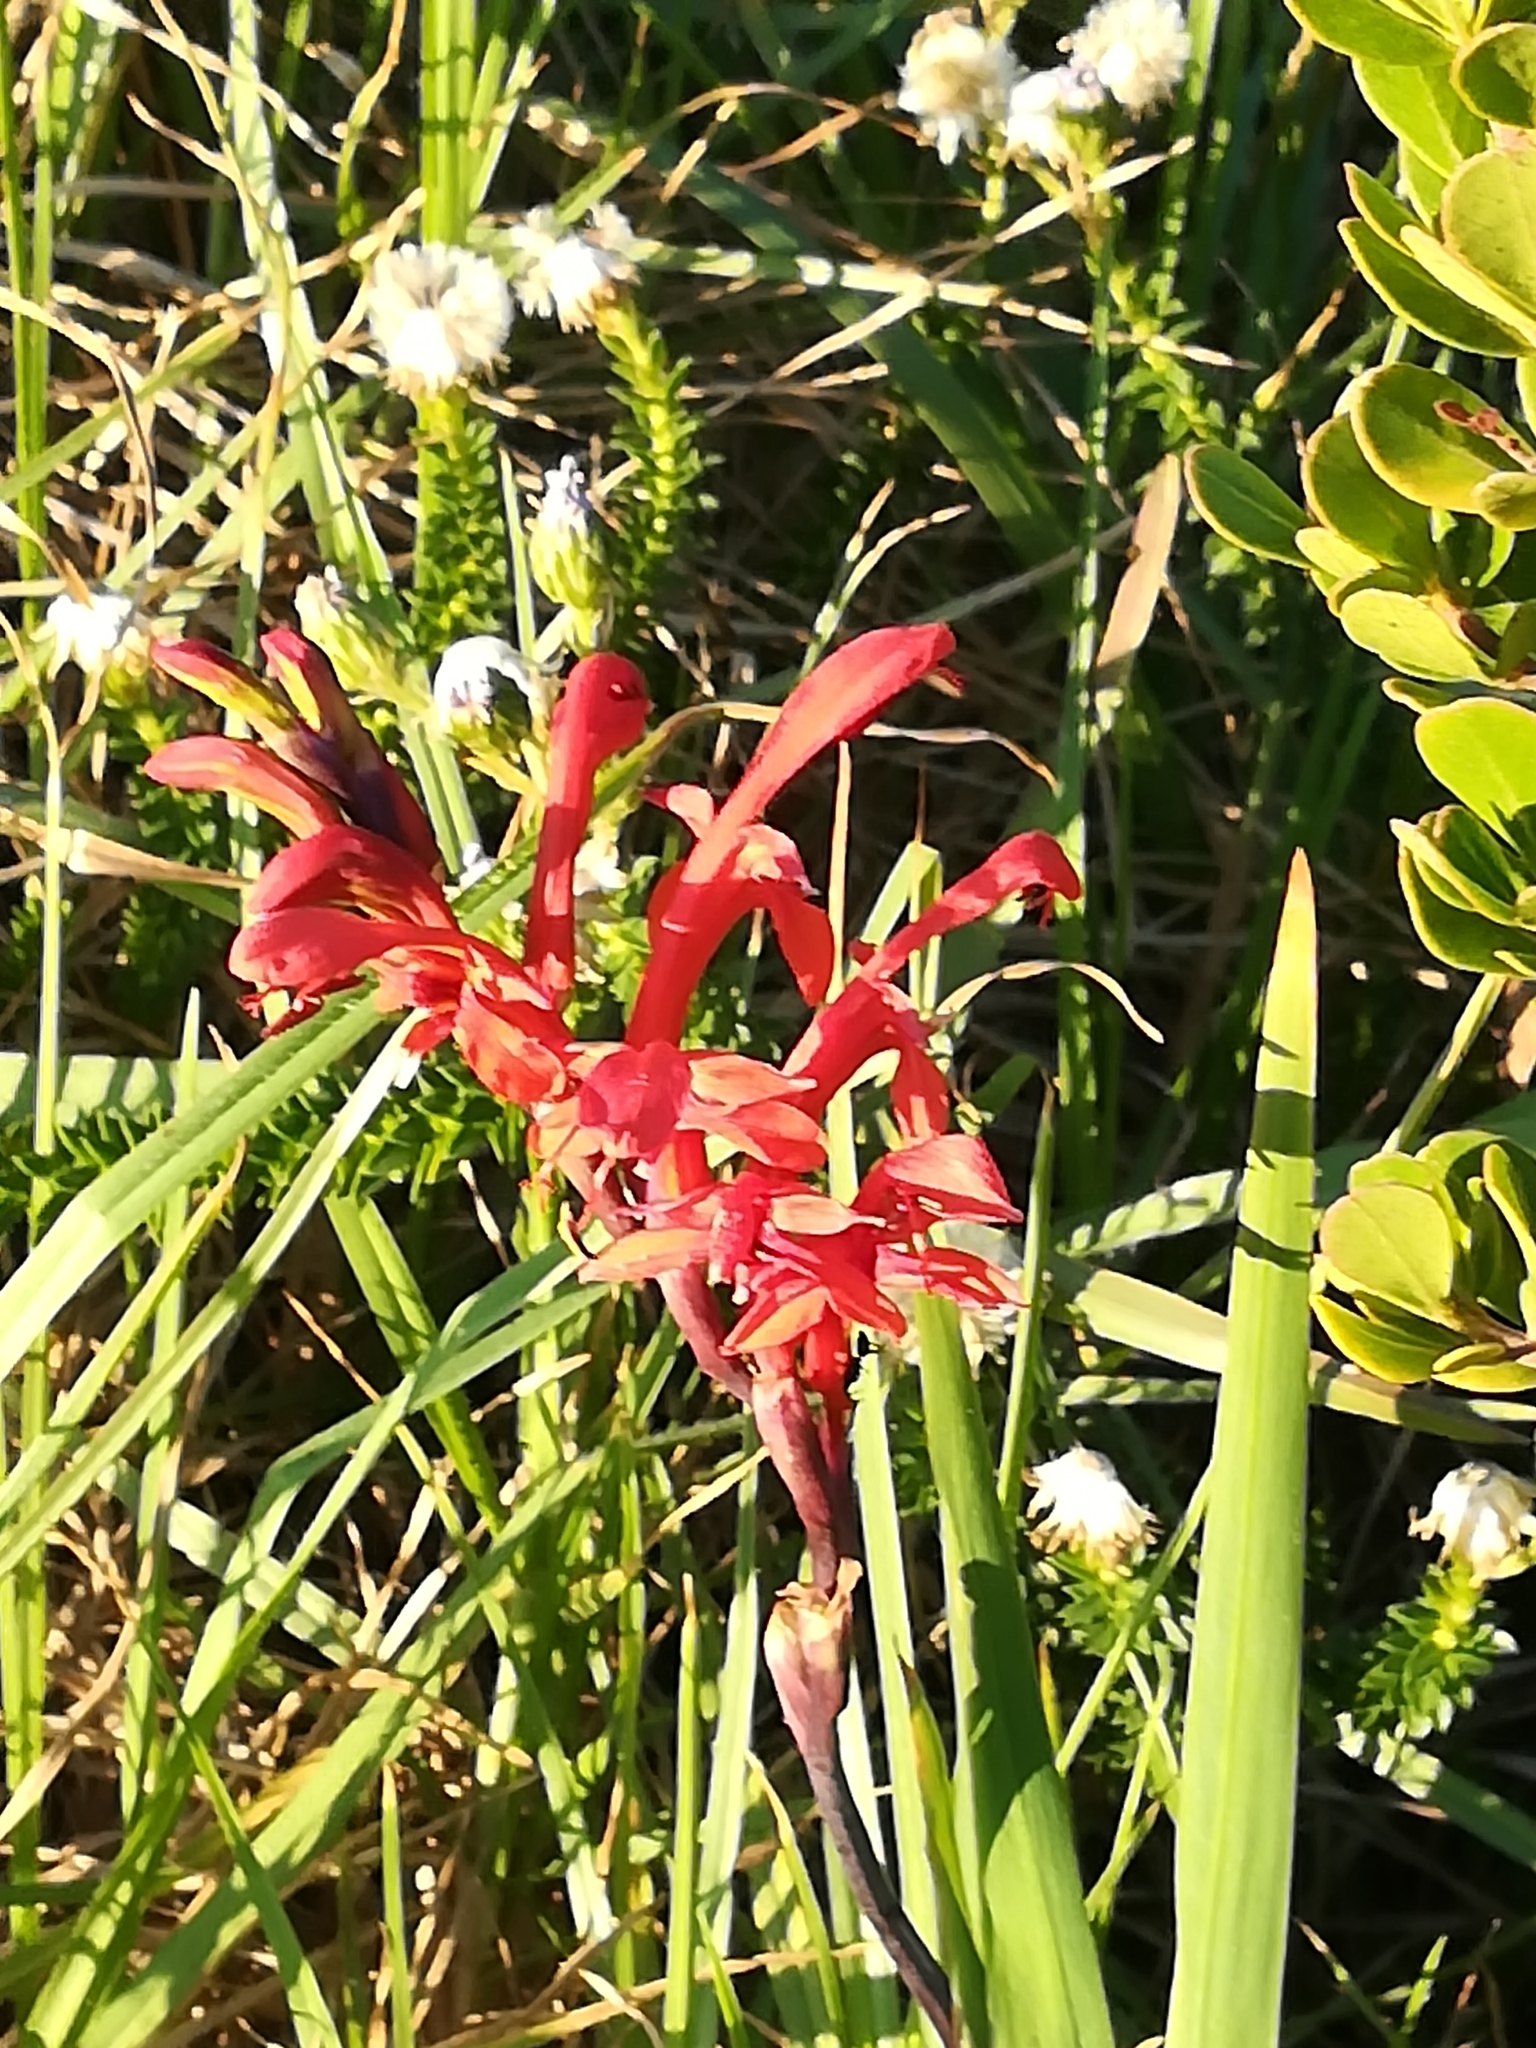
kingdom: Plantae
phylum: Tracheophyta
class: Liliopsida
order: Asparagales
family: Iridaceae
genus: Chasmanthe
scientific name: Chasmanthe aethiopica
